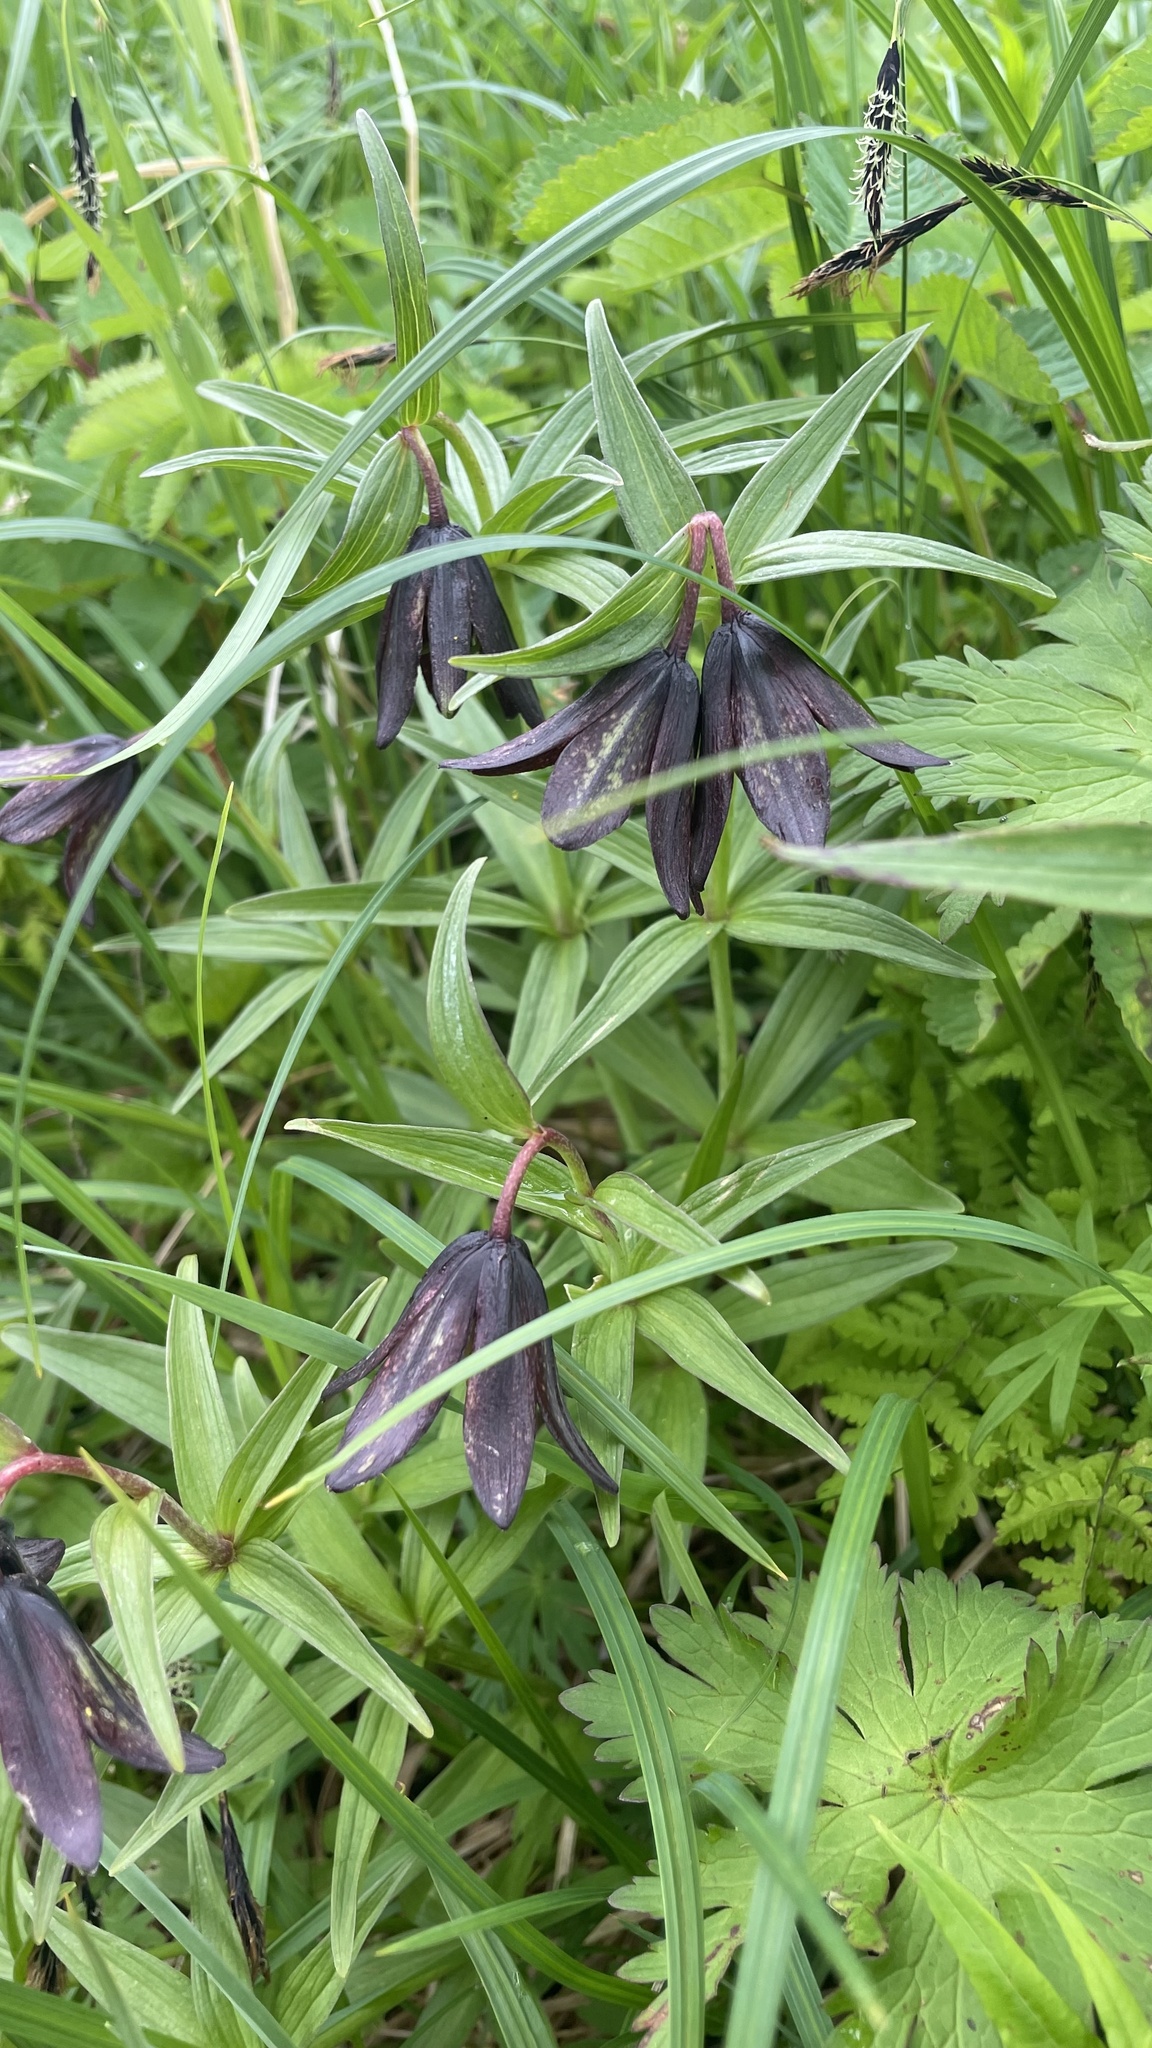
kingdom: Plantae
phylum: Tracheophyta
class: Liliopsida
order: Liliales
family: Liliaceae
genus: Fritillaria
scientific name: Fritillaria camschatcensis
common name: Kamchatka fritillary
